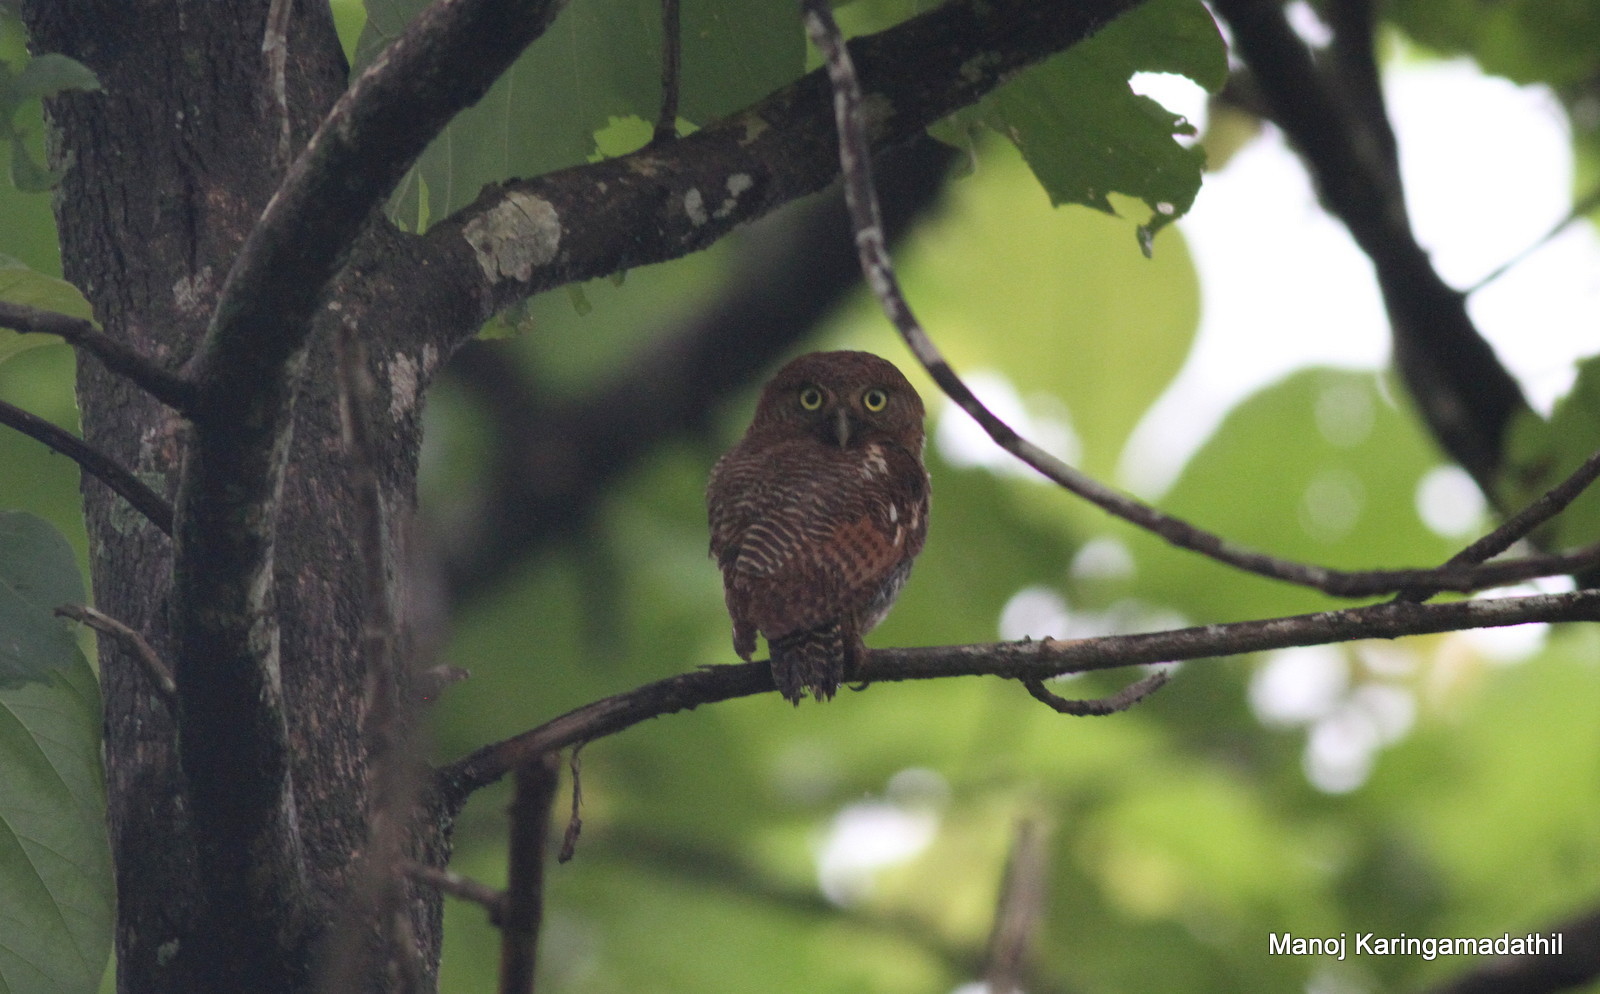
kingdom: Animalia
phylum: Chordata
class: Aves
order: Strigiformes
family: Strigidae
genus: Glaucidium
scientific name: Glaucidium radiatum
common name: Jungle owlet
